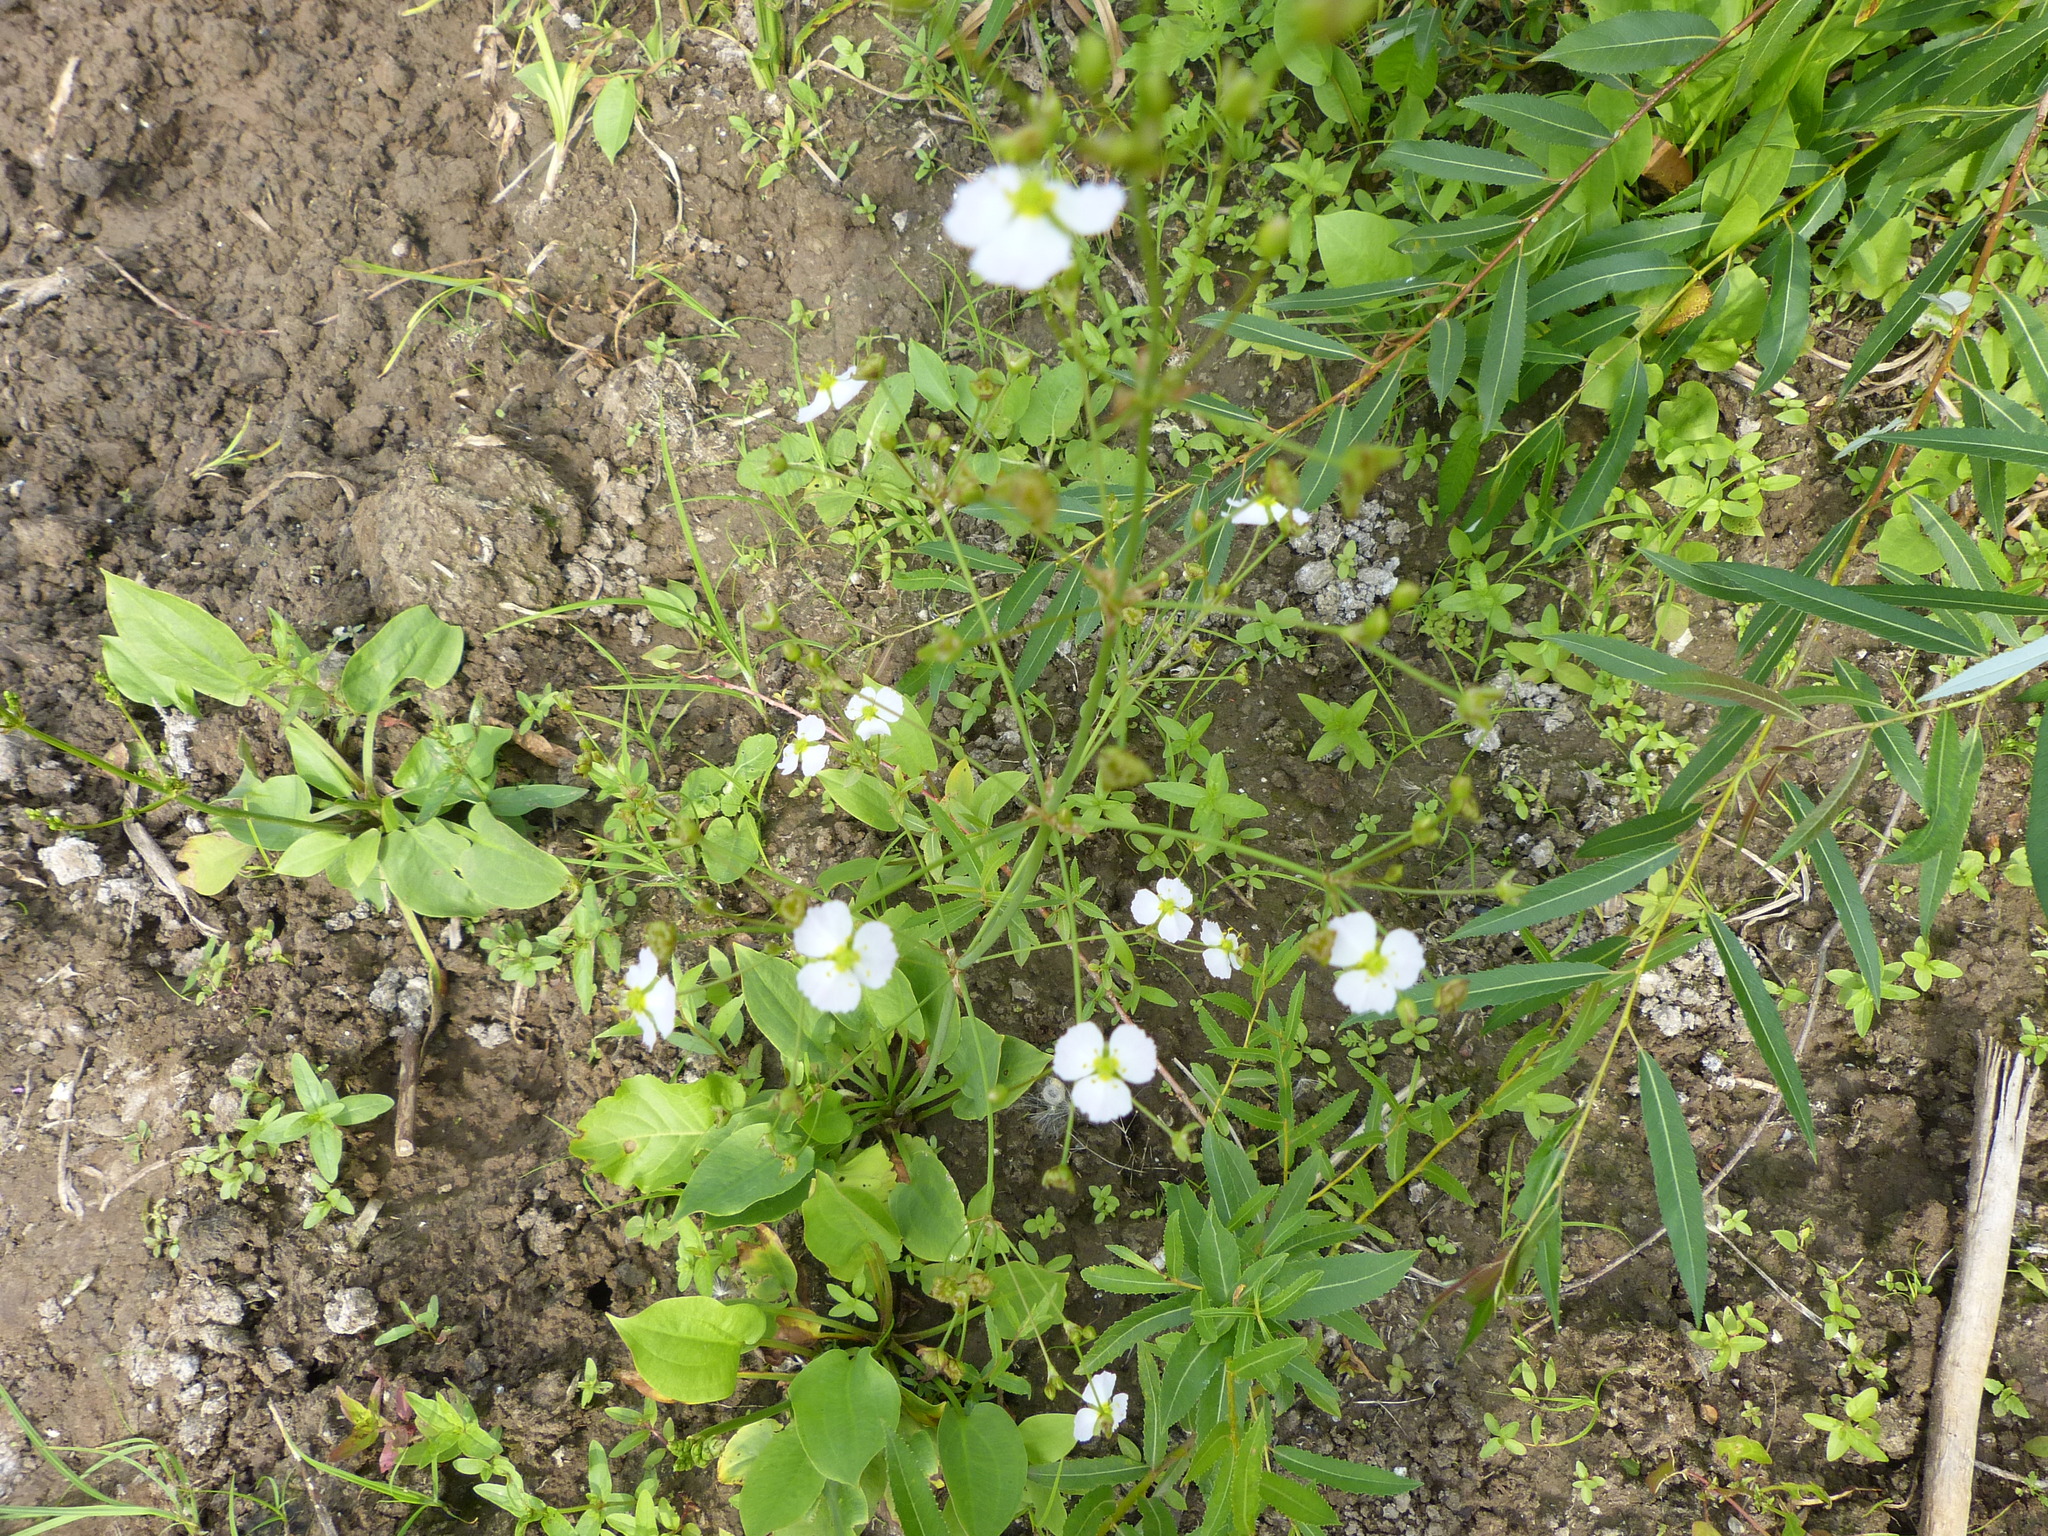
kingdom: Plantae
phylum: Tracheophyta
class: Liliopsida
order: Alismatales
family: Alismataceae
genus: Alisma
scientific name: Alisma plantago-aquatica
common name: Water-plantain
